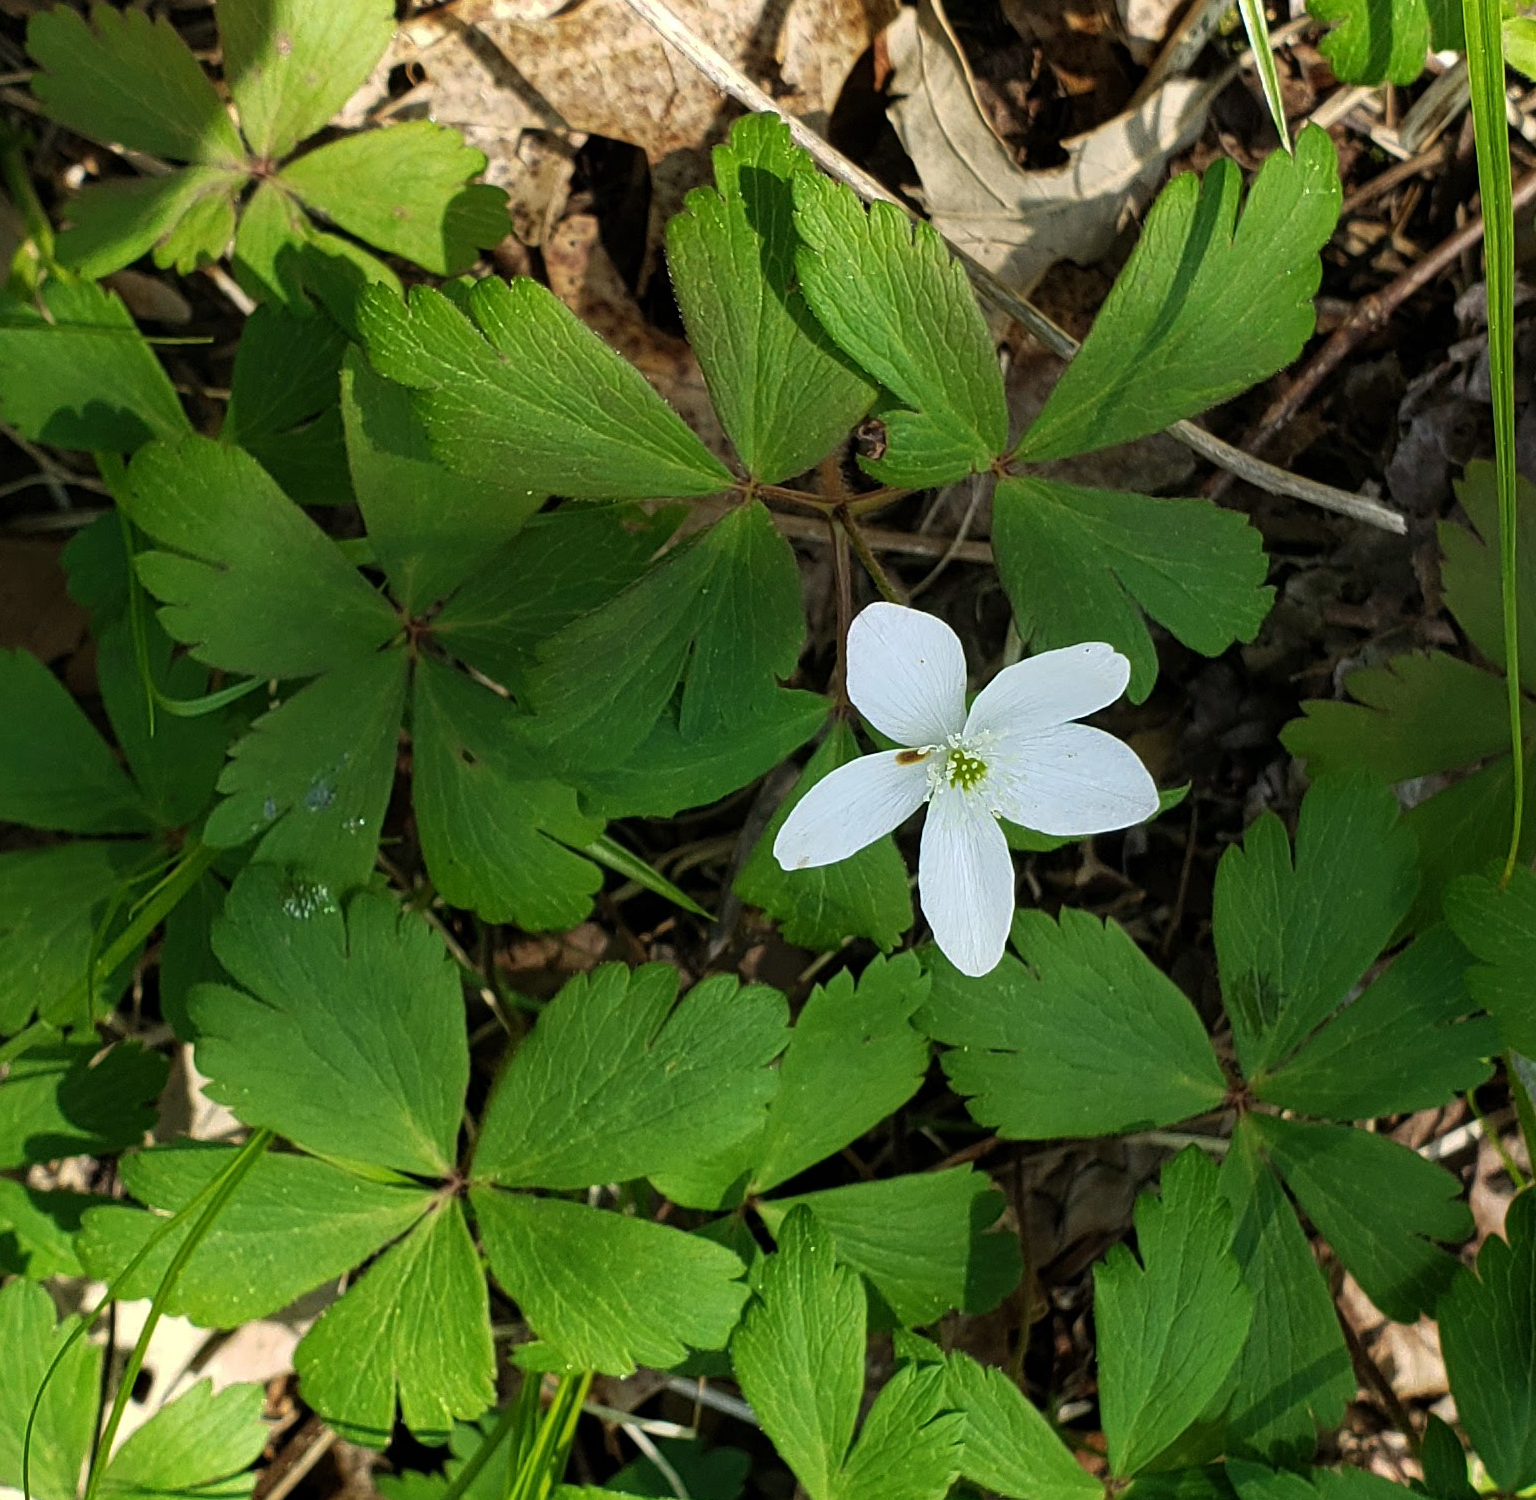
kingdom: Plantae
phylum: Tracheophyta
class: Magnoliopsida
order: Ranunculales
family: Ranunculaceae
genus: Anemone
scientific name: Anemone quinquefolia
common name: Wood anemone
